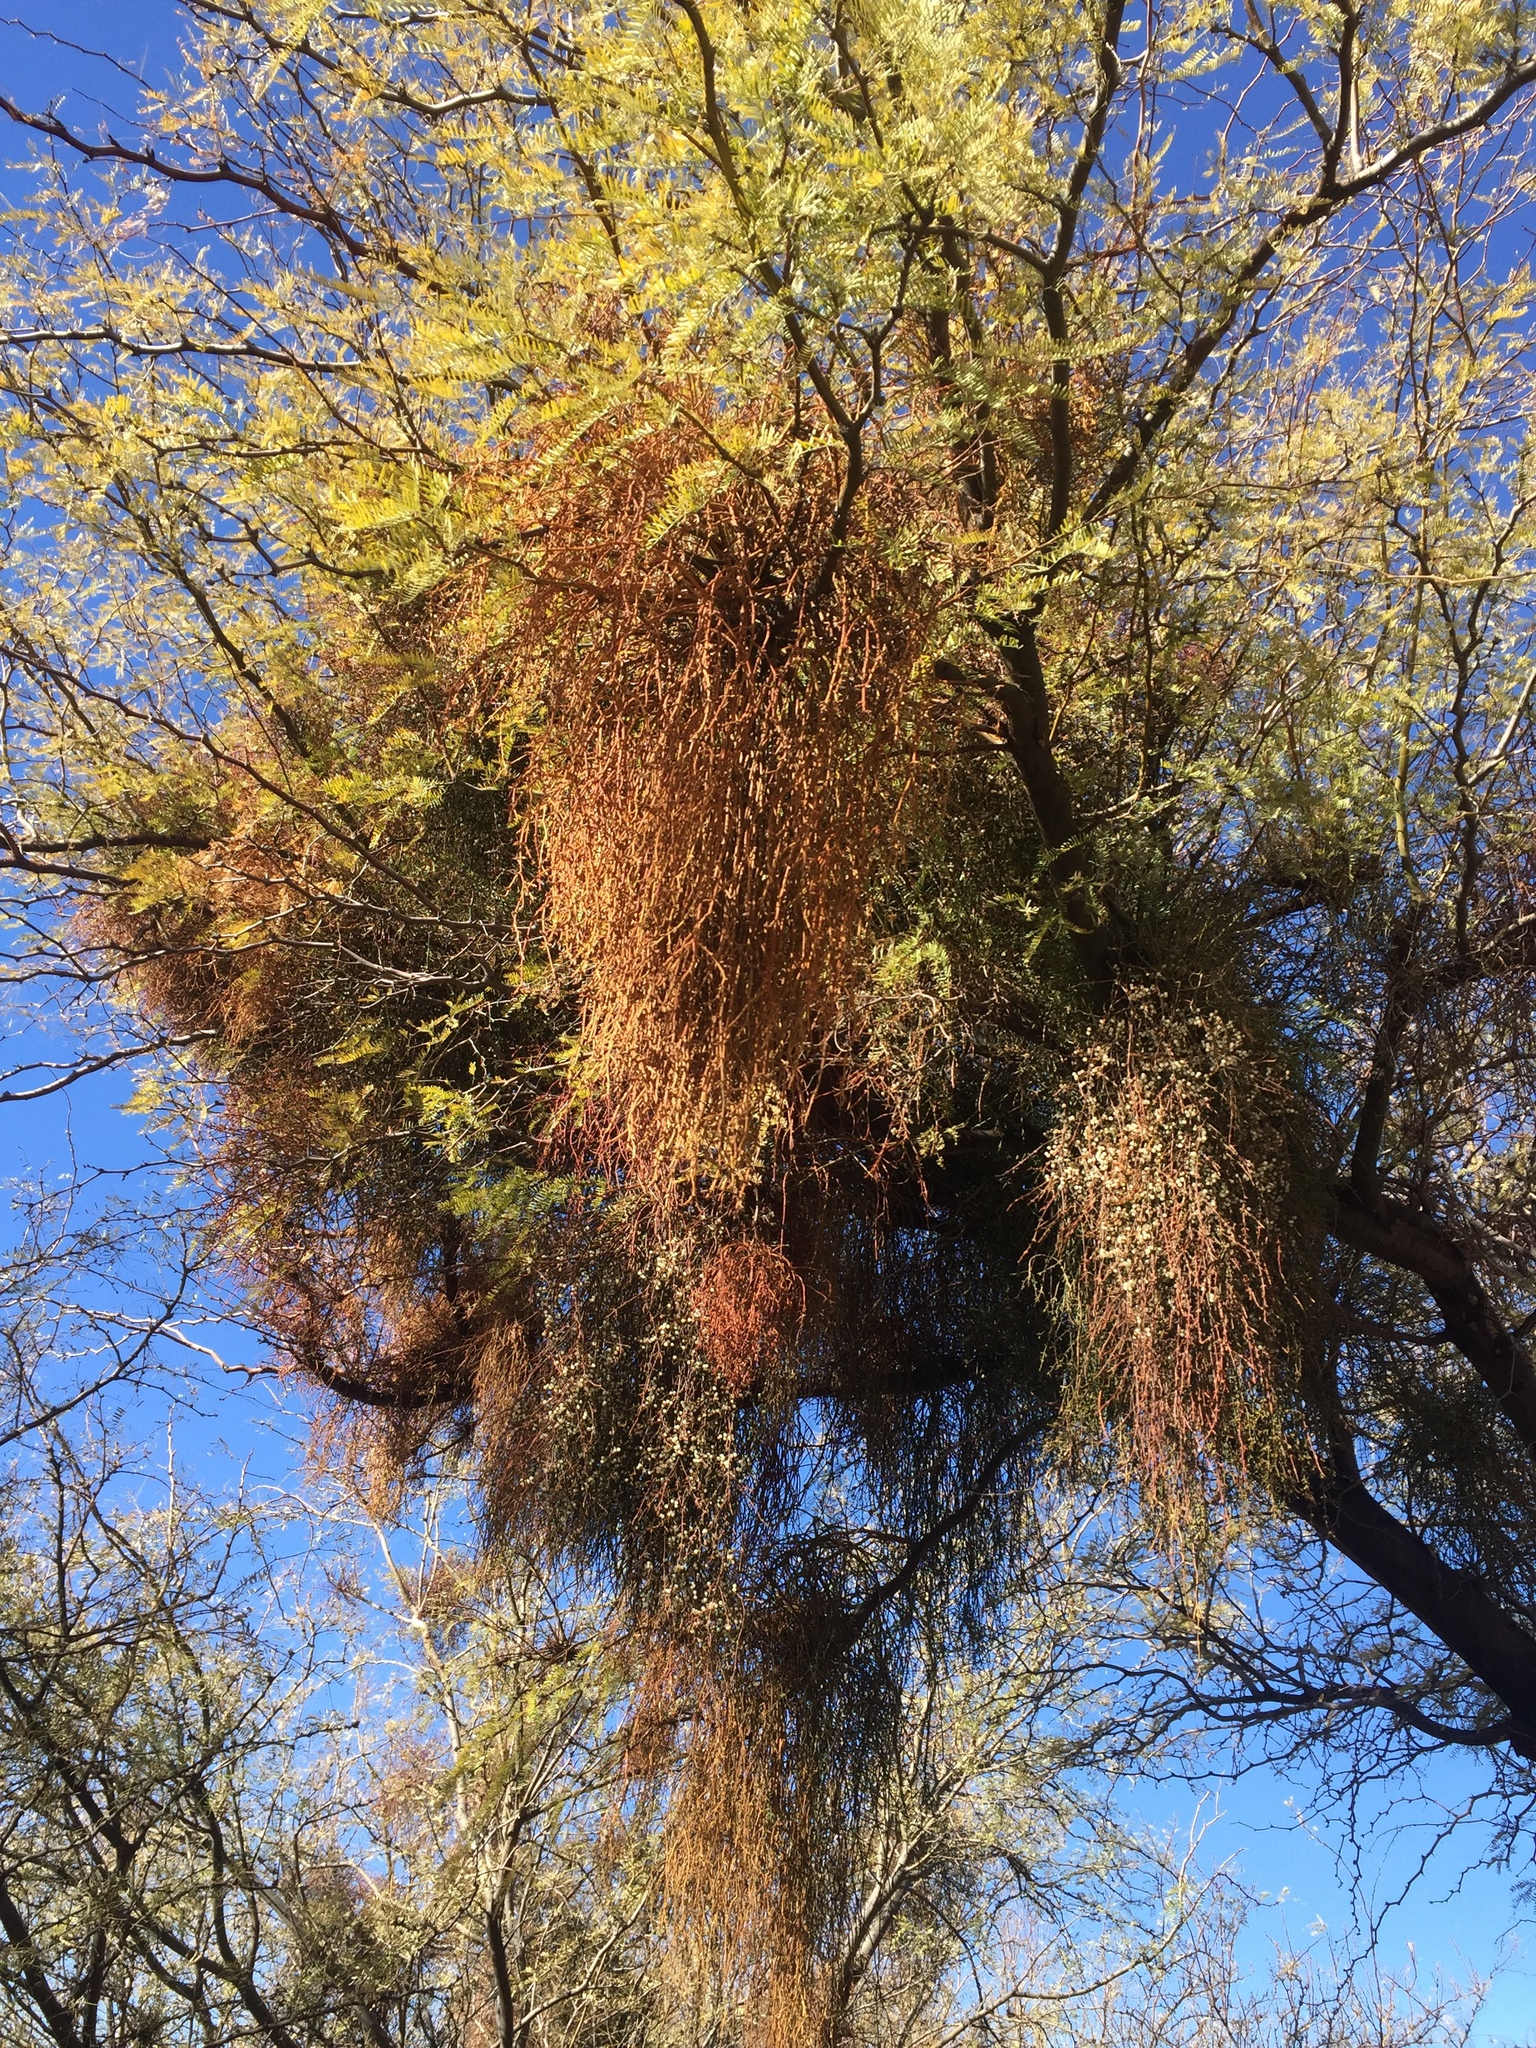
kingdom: Plantae
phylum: Tracheophyta
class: Magnoliopsida
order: Santalales
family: Viscaceae
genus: Phoradendron
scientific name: Phoradendron californicum
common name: Acacia mistletoe
